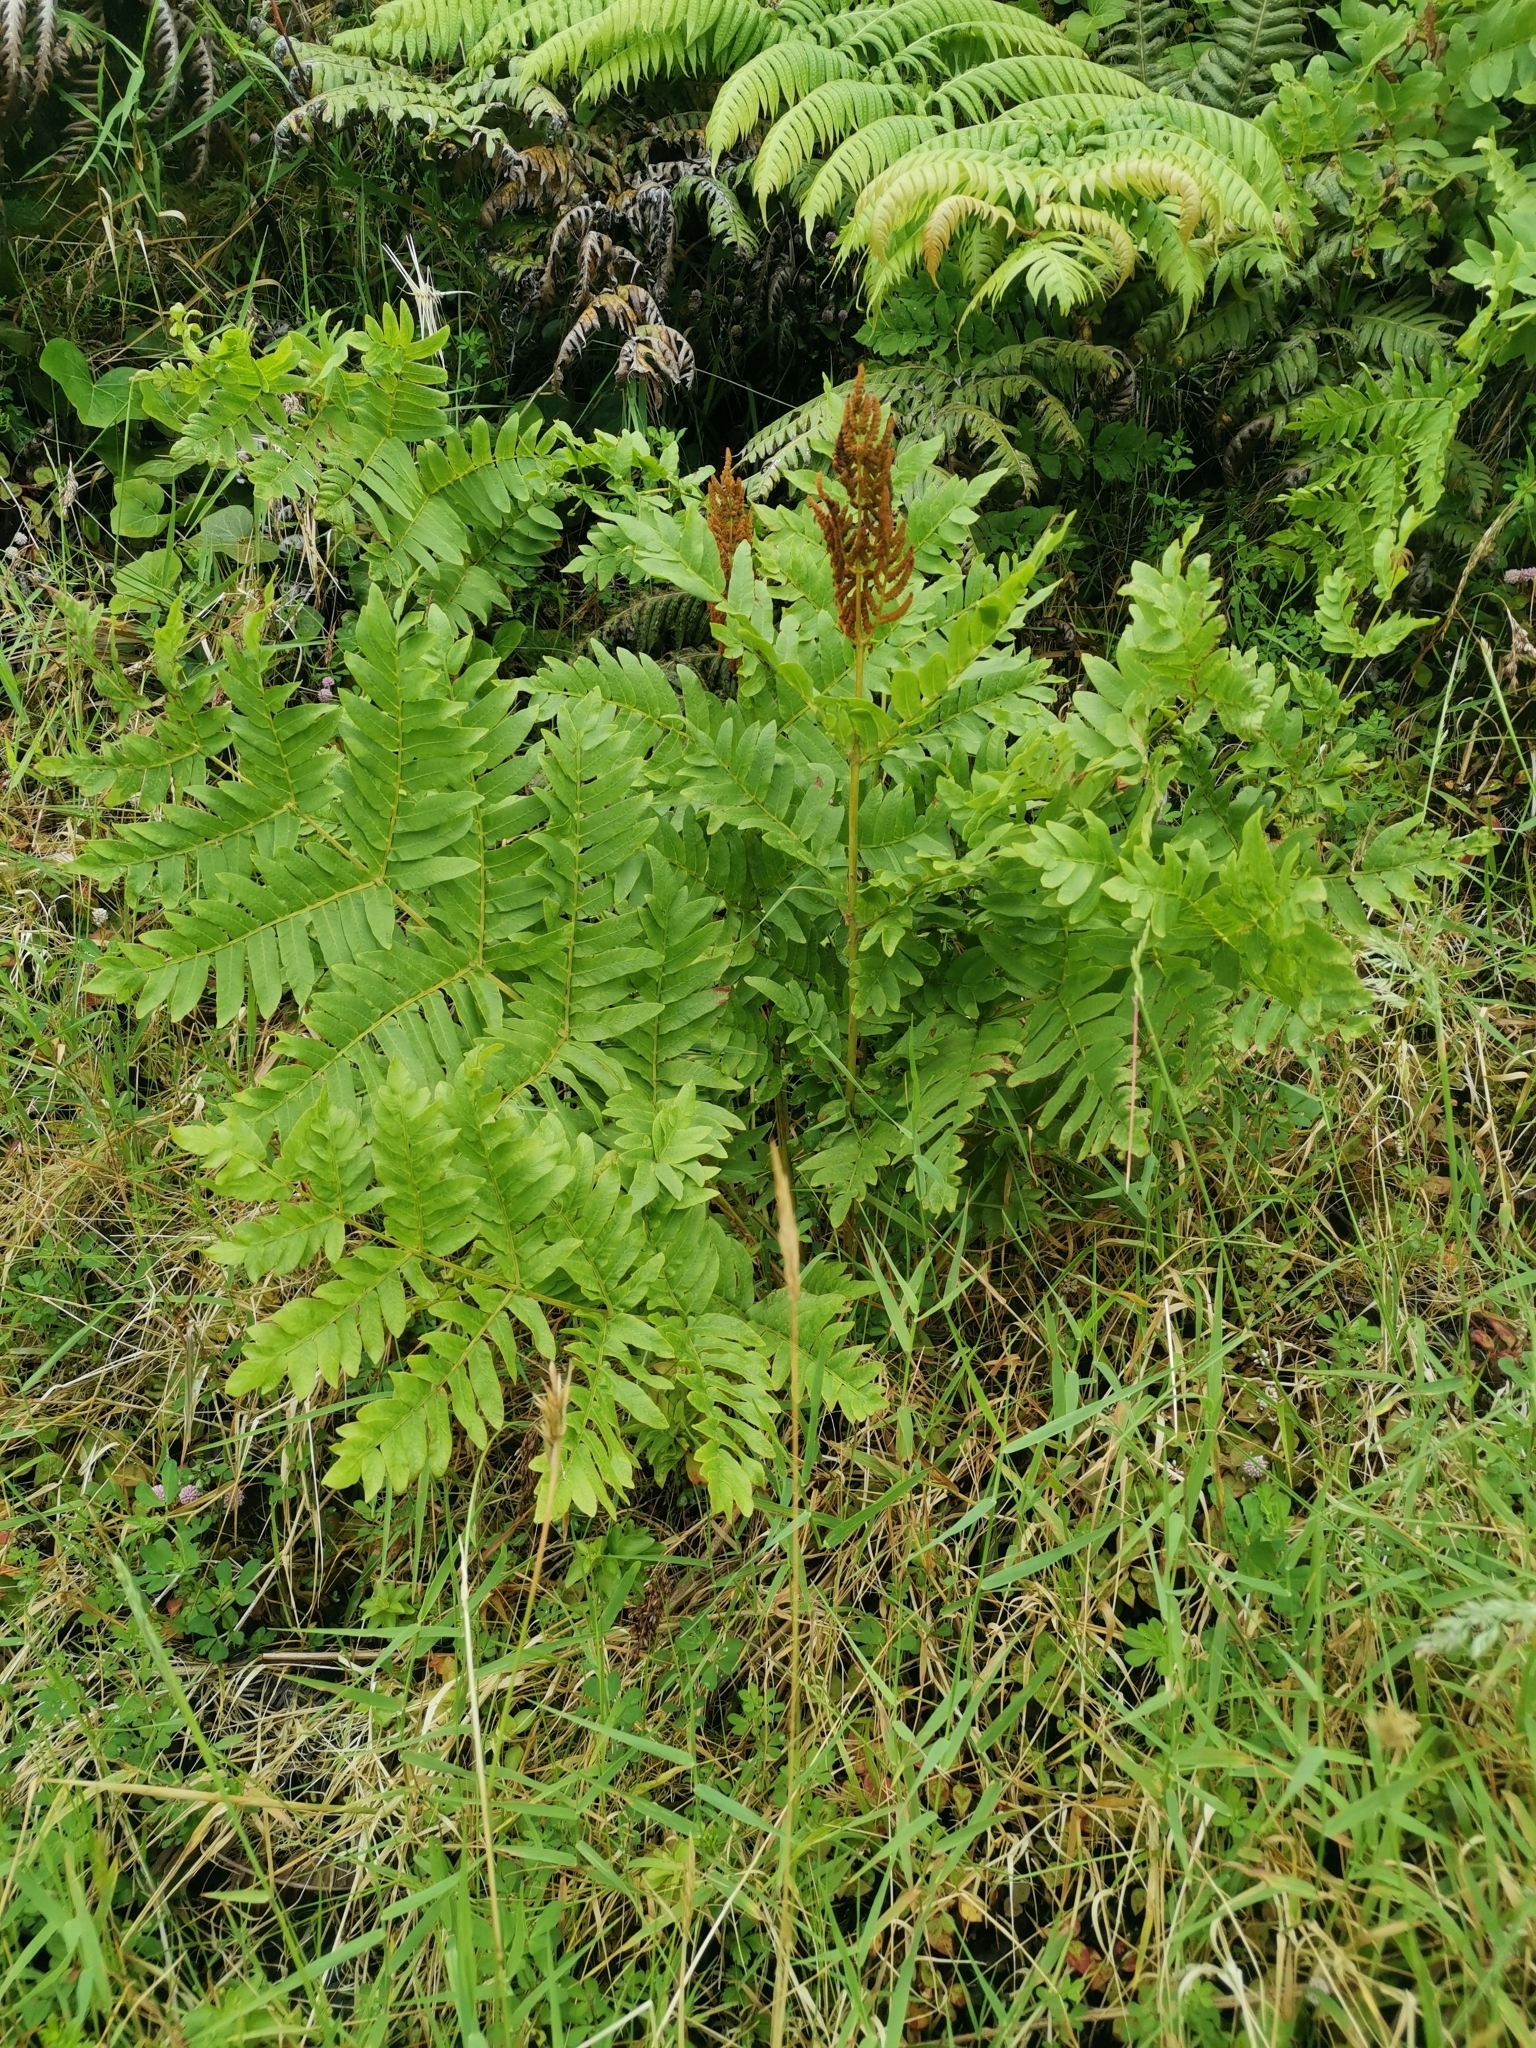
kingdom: Plantae
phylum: Tracheophyta
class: Polypodiopsida
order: Osmundales
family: Osmundaceae
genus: Osmunda
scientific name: Osmunda regalis
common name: Royal fern
